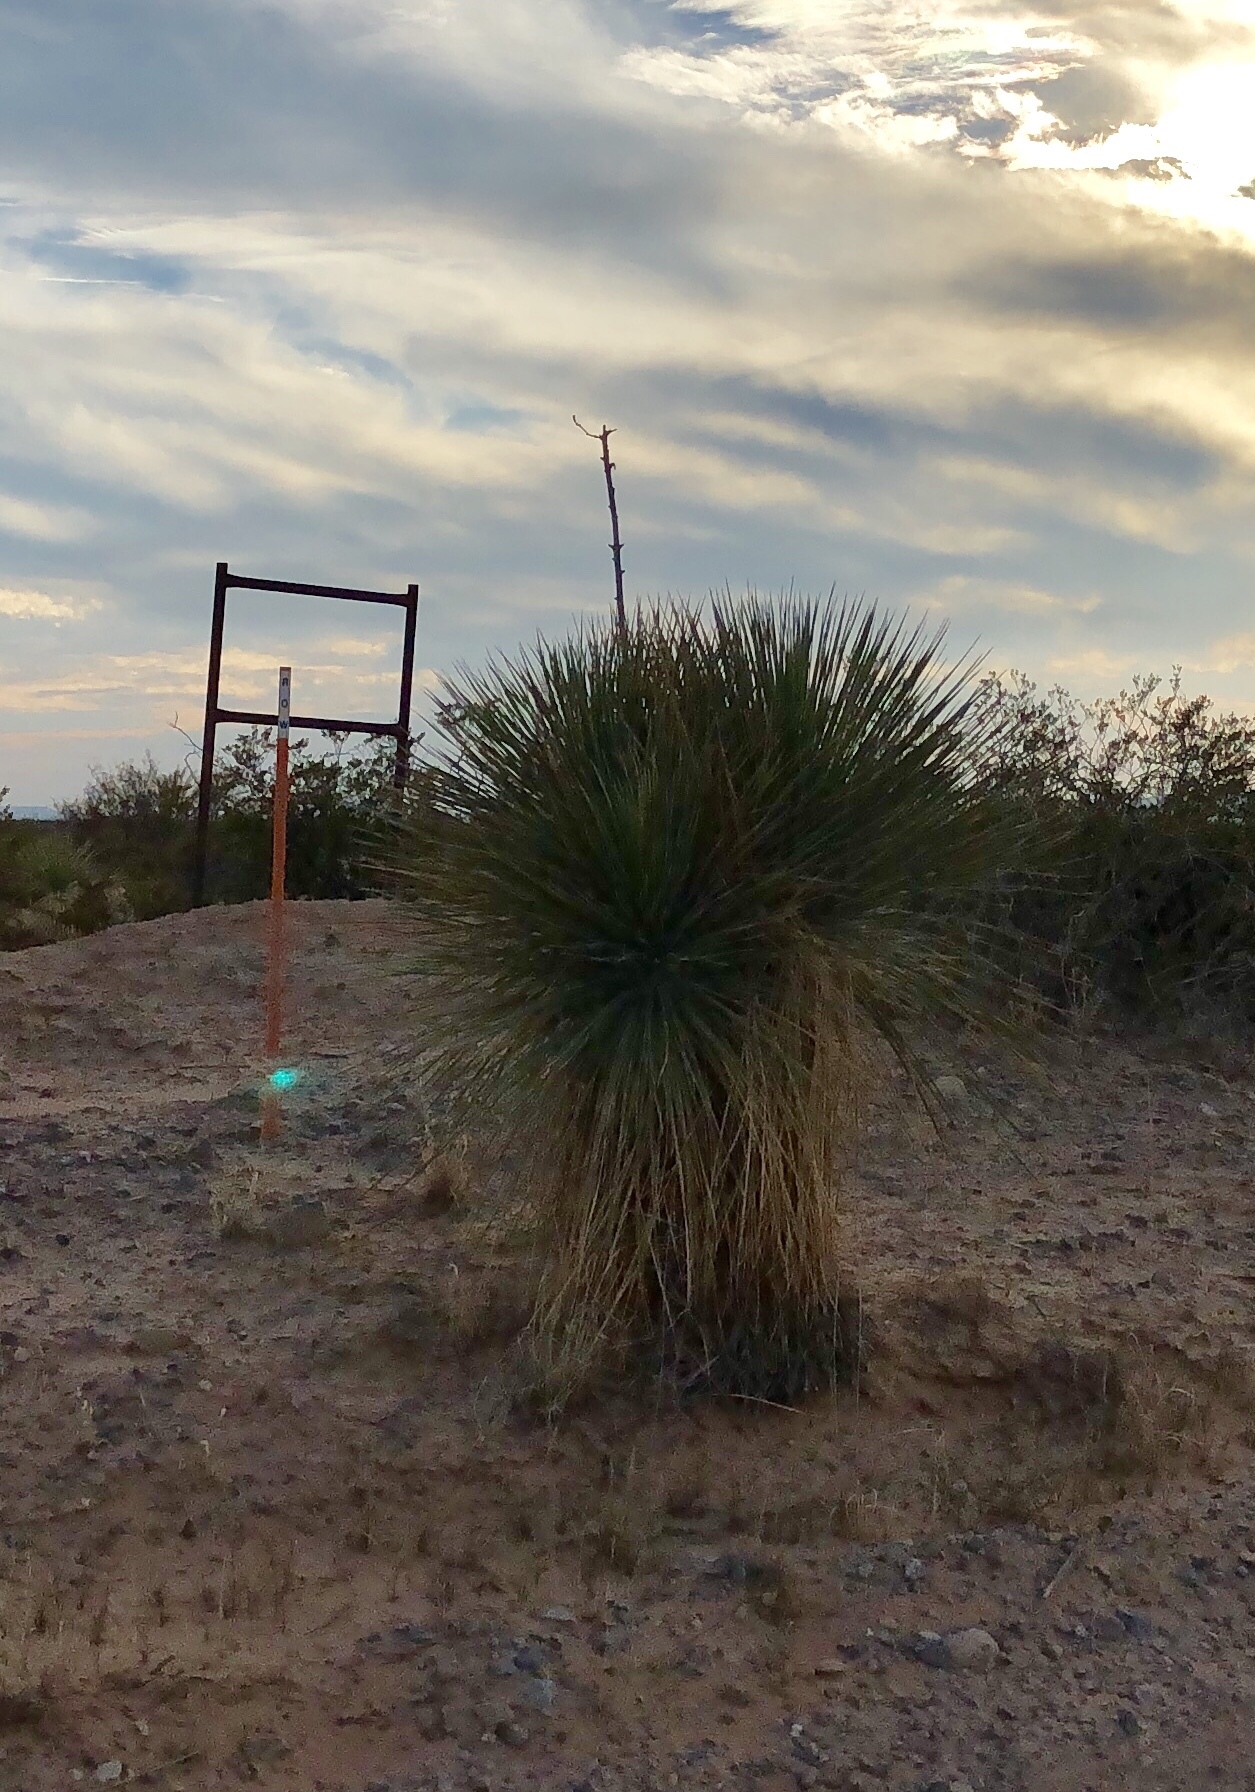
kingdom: Plantae
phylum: Tracheophyta
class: Liliopsida
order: Asparagales
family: Asparagaceae
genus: Yucca
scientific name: Yucca elata
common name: Palmella
